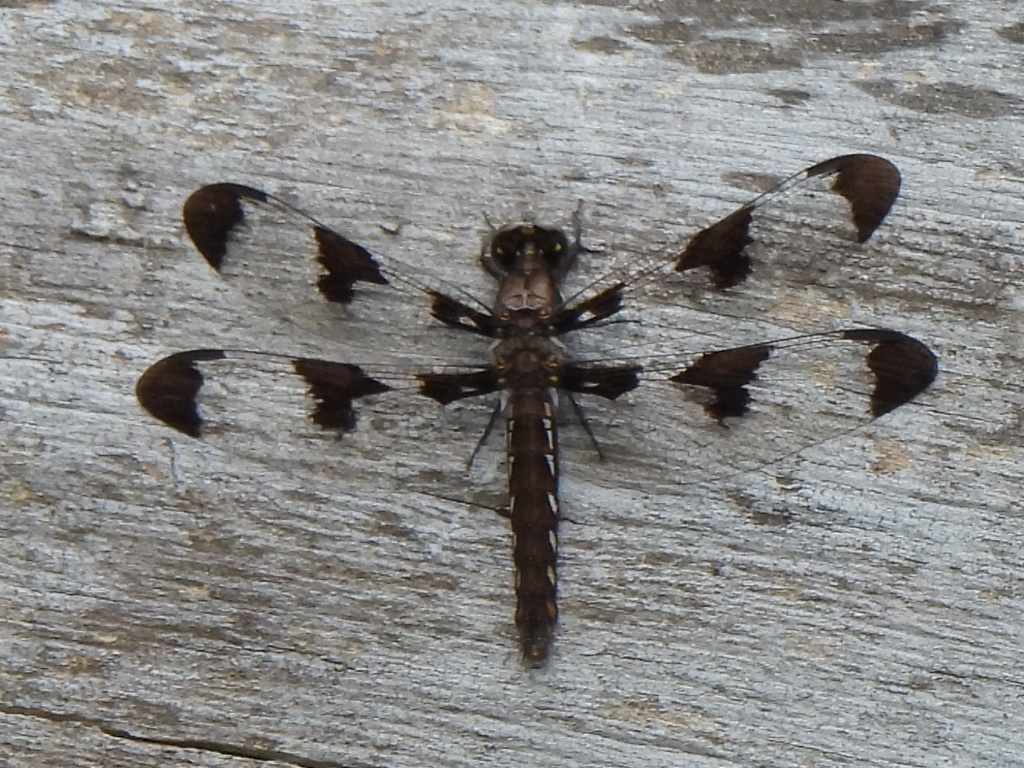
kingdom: Animalia
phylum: Arthropoda
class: Insecta
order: Odonata
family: Libellulidae
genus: Plathemis
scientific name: Plathemis lydia
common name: Common whitetail
